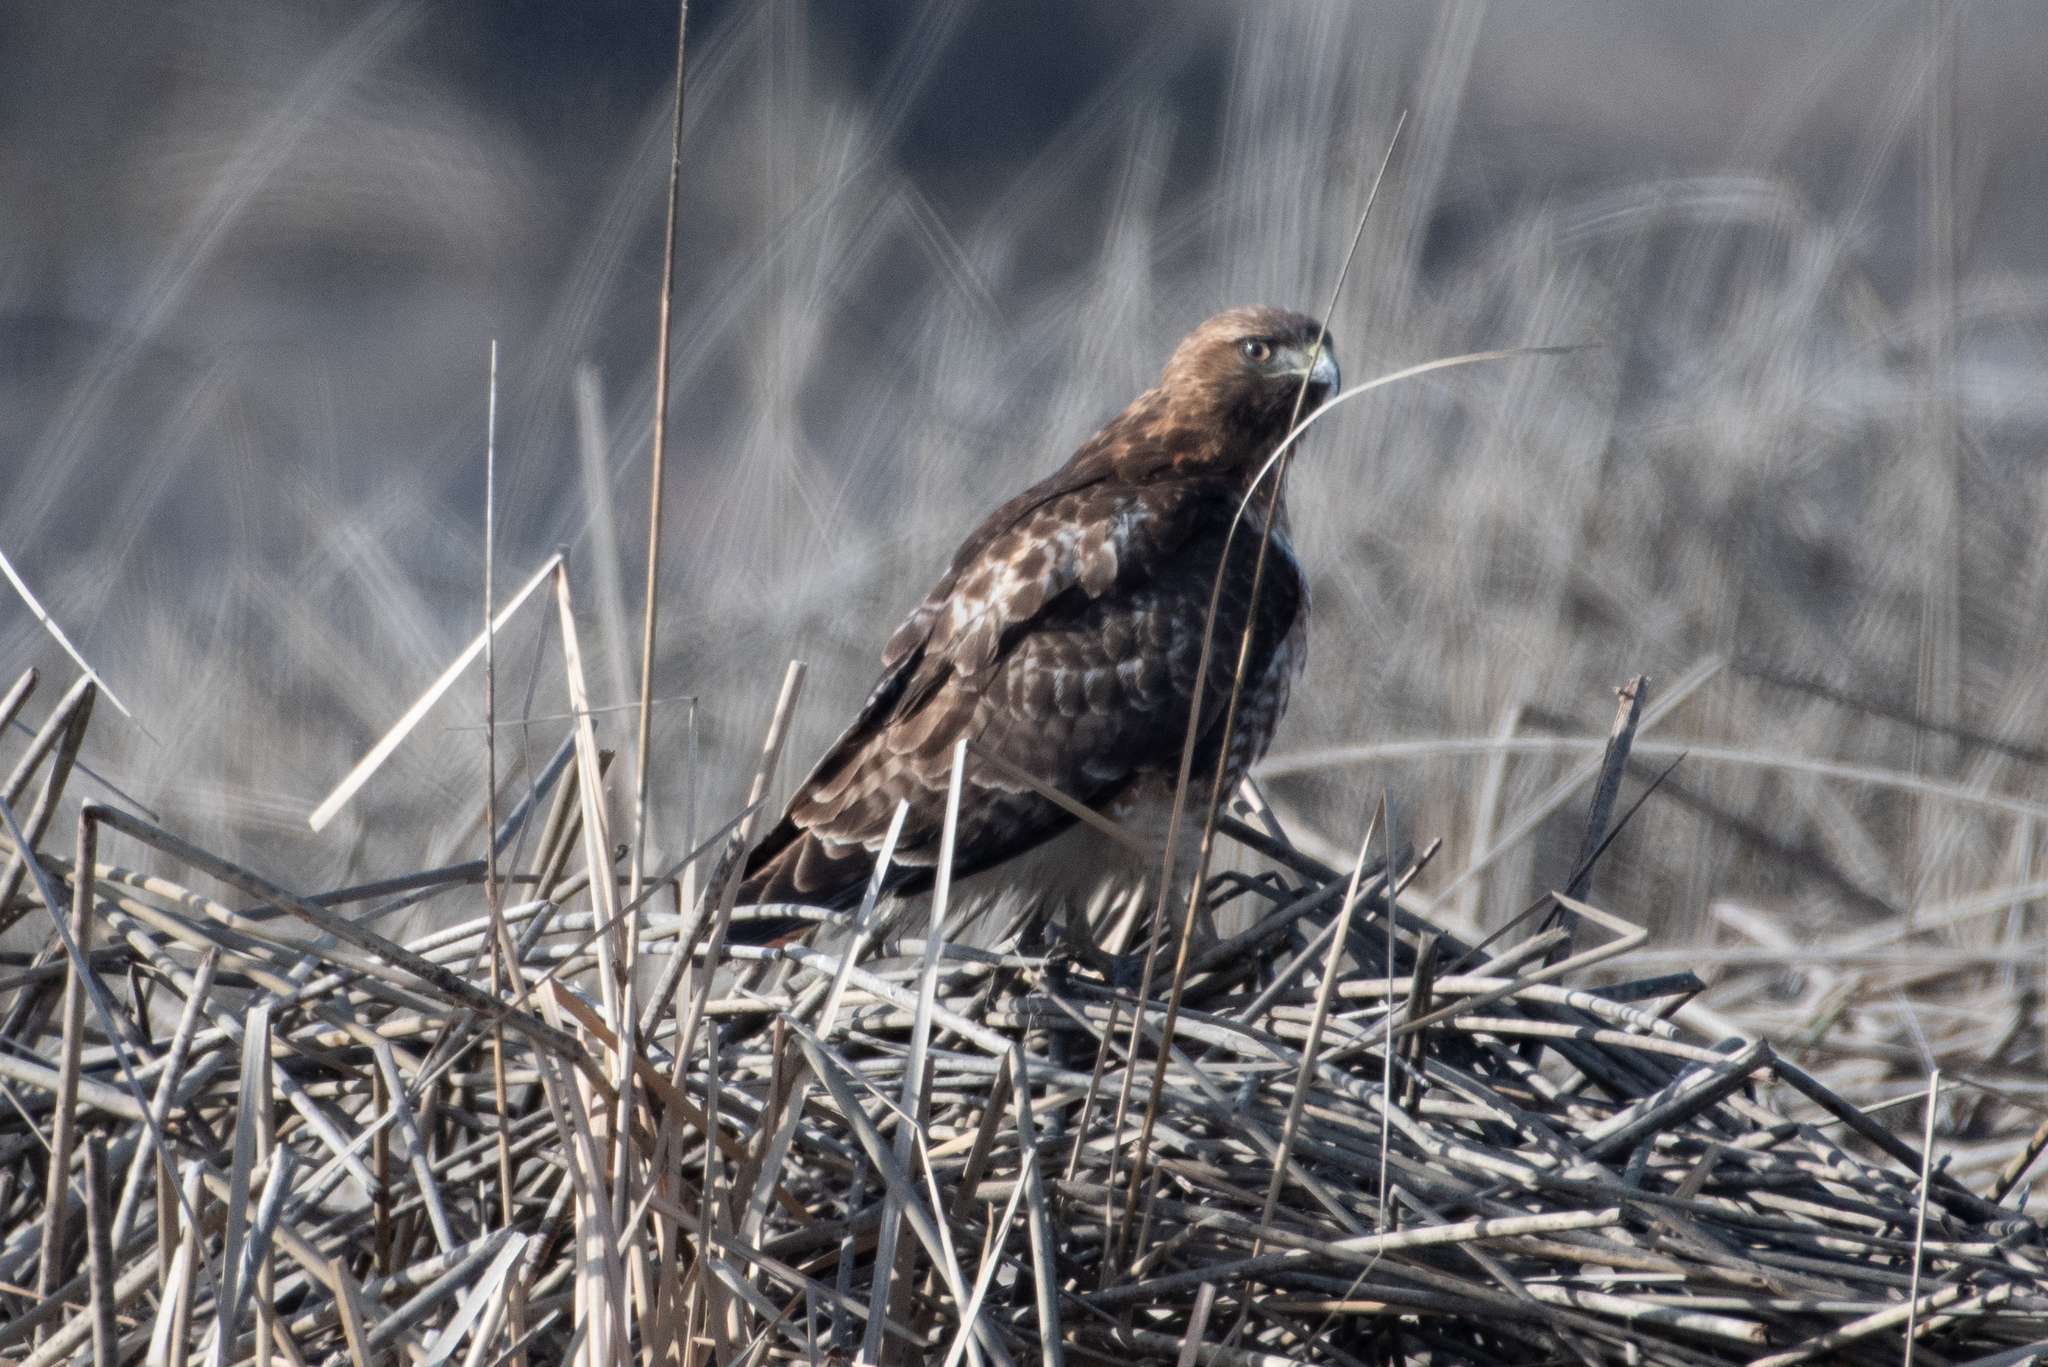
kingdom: Animalia
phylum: Chordata
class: Aves
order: Accipitriformes
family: Accipitridae
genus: Buteo
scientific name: Buteo jamaicensis
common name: Red-tailed hawk
